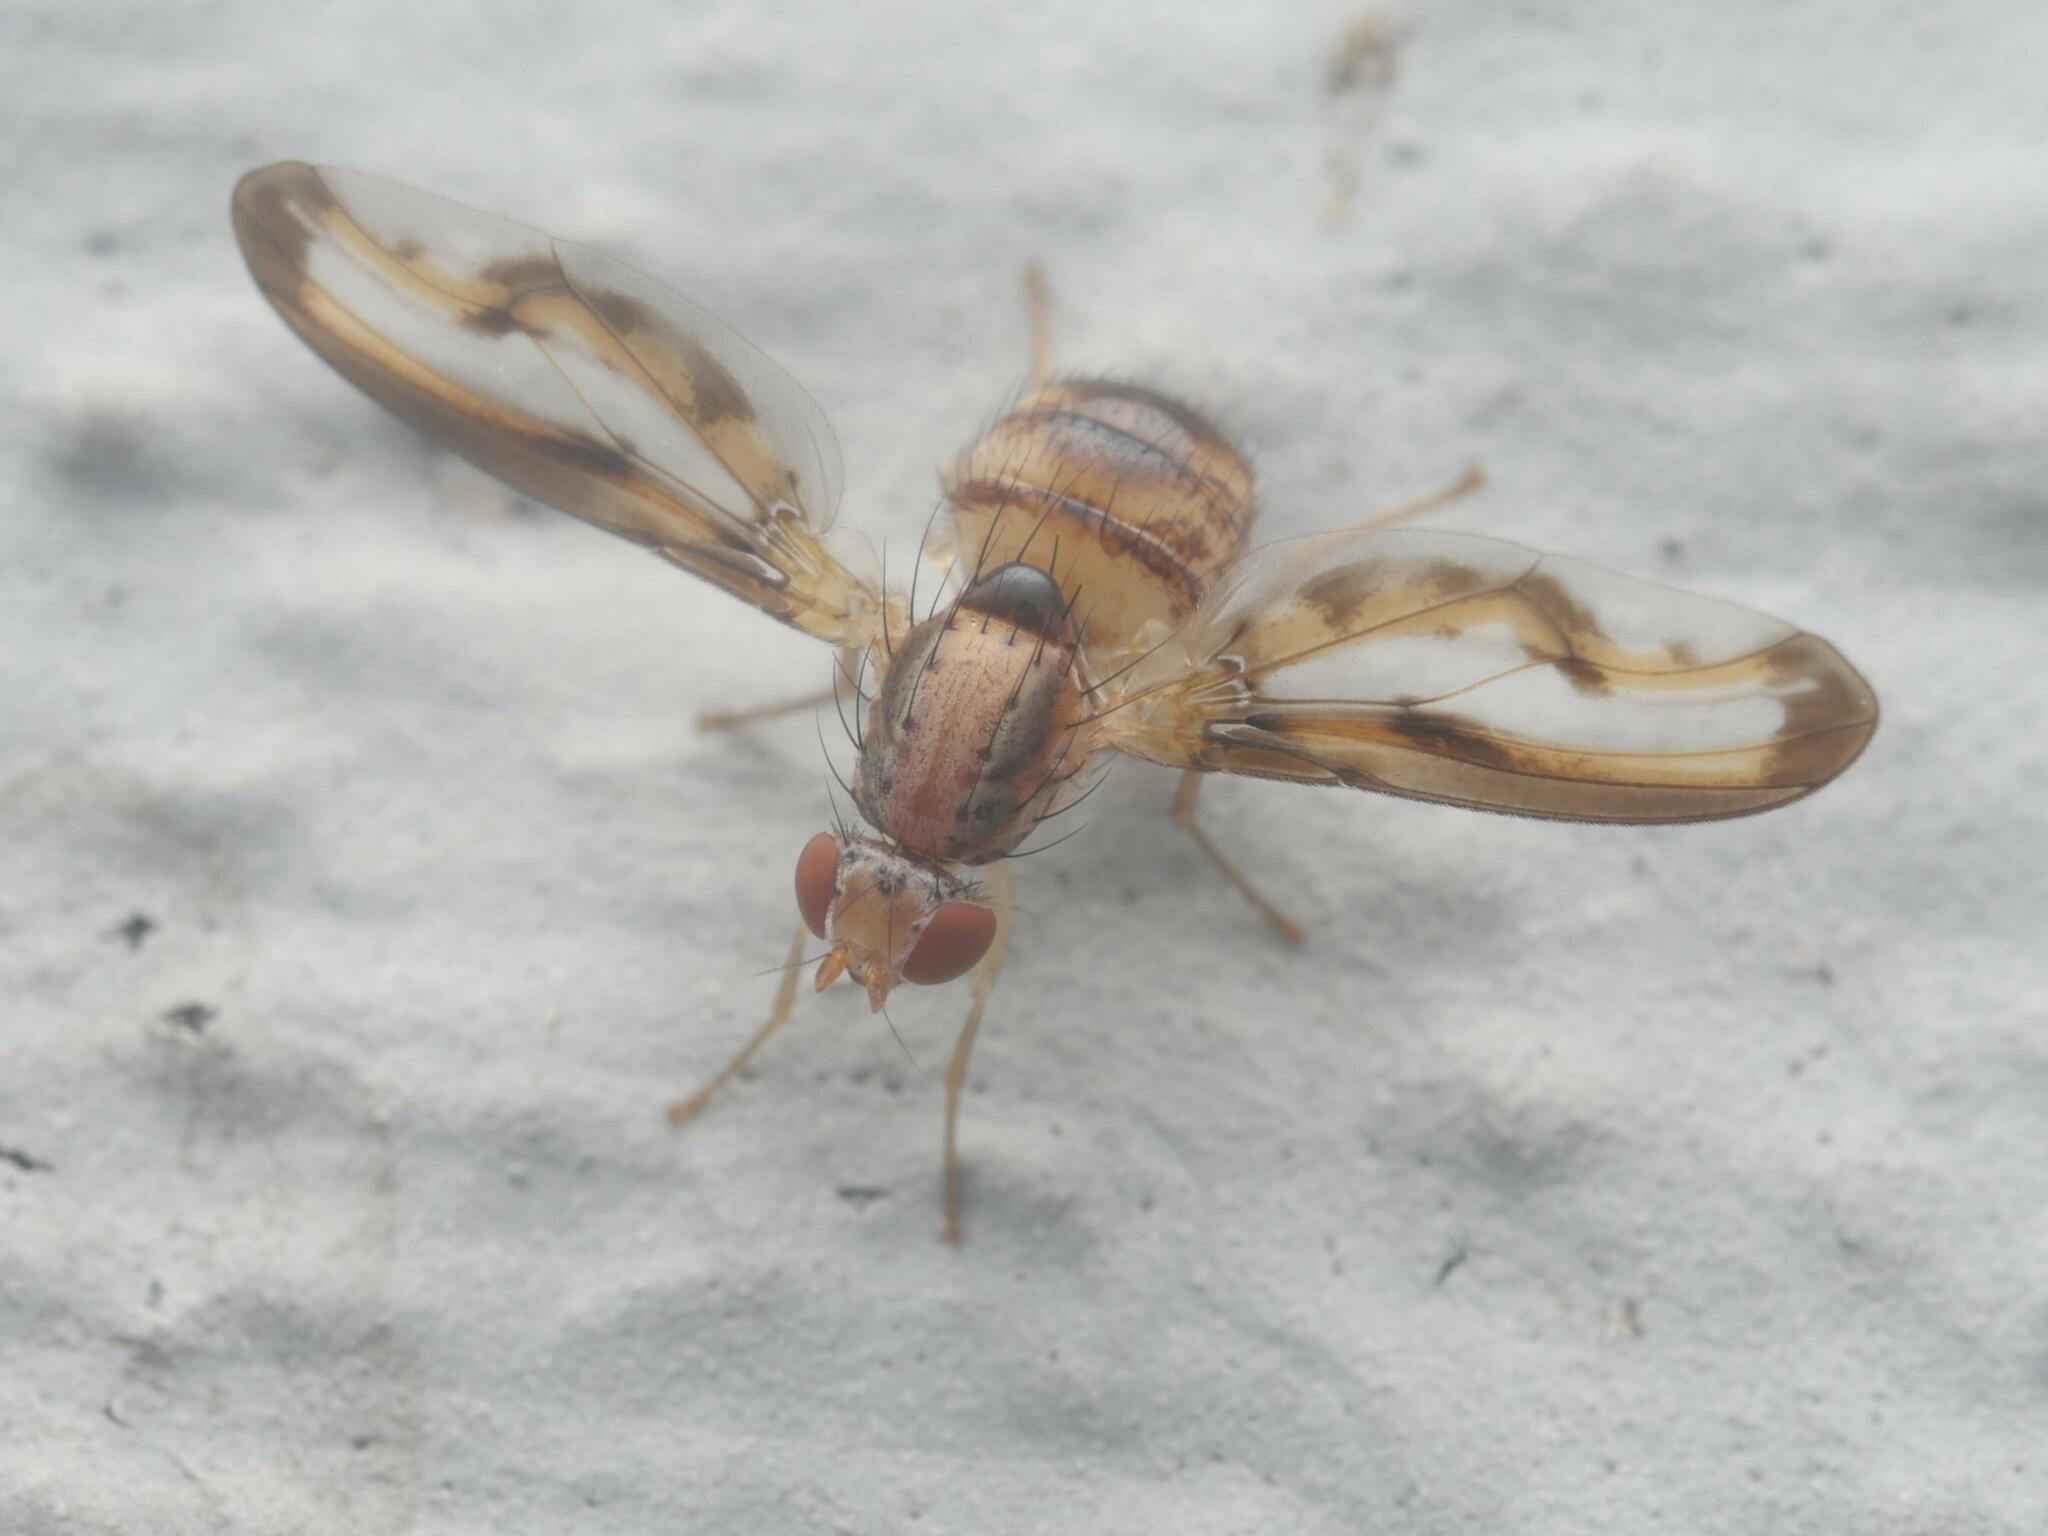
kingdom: Animalia
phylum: Arthropoda
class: Insecta
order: Diptera
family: Pallopteridae
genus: Toxonevra
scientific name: Toxonevra muliebris
